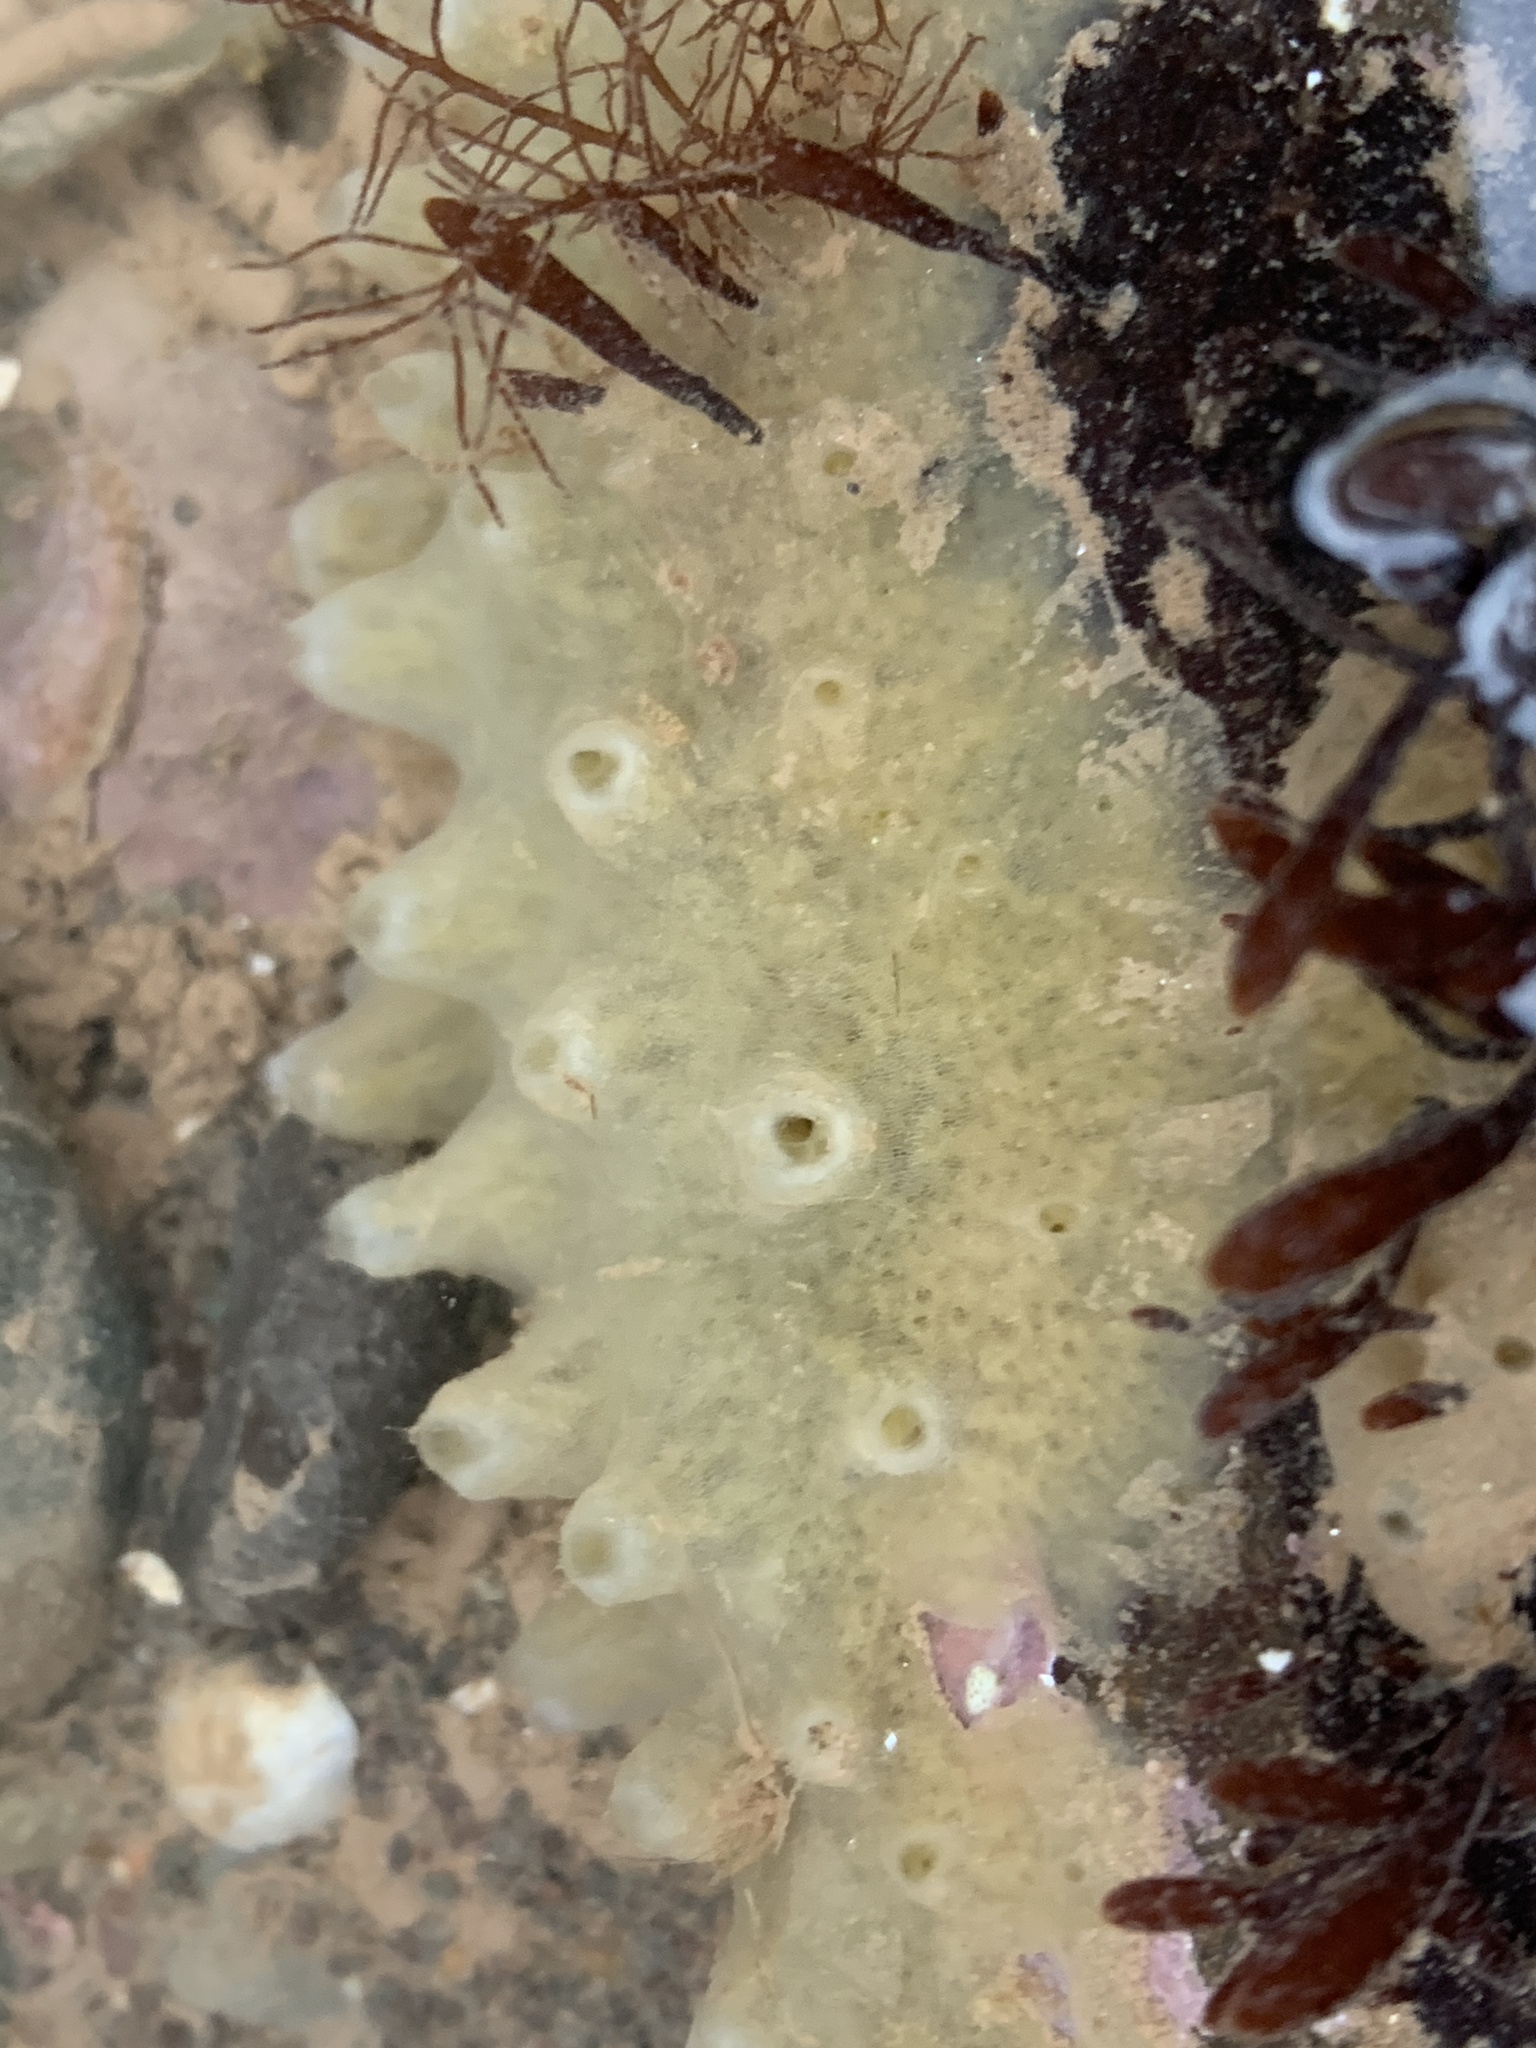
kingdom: Animalia
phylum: Porifera
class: Demospongiae
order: Suberitida
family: Halichondriidae
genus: Halichondria
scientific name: Halichondria panicea
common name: Breadcrumb sponge
